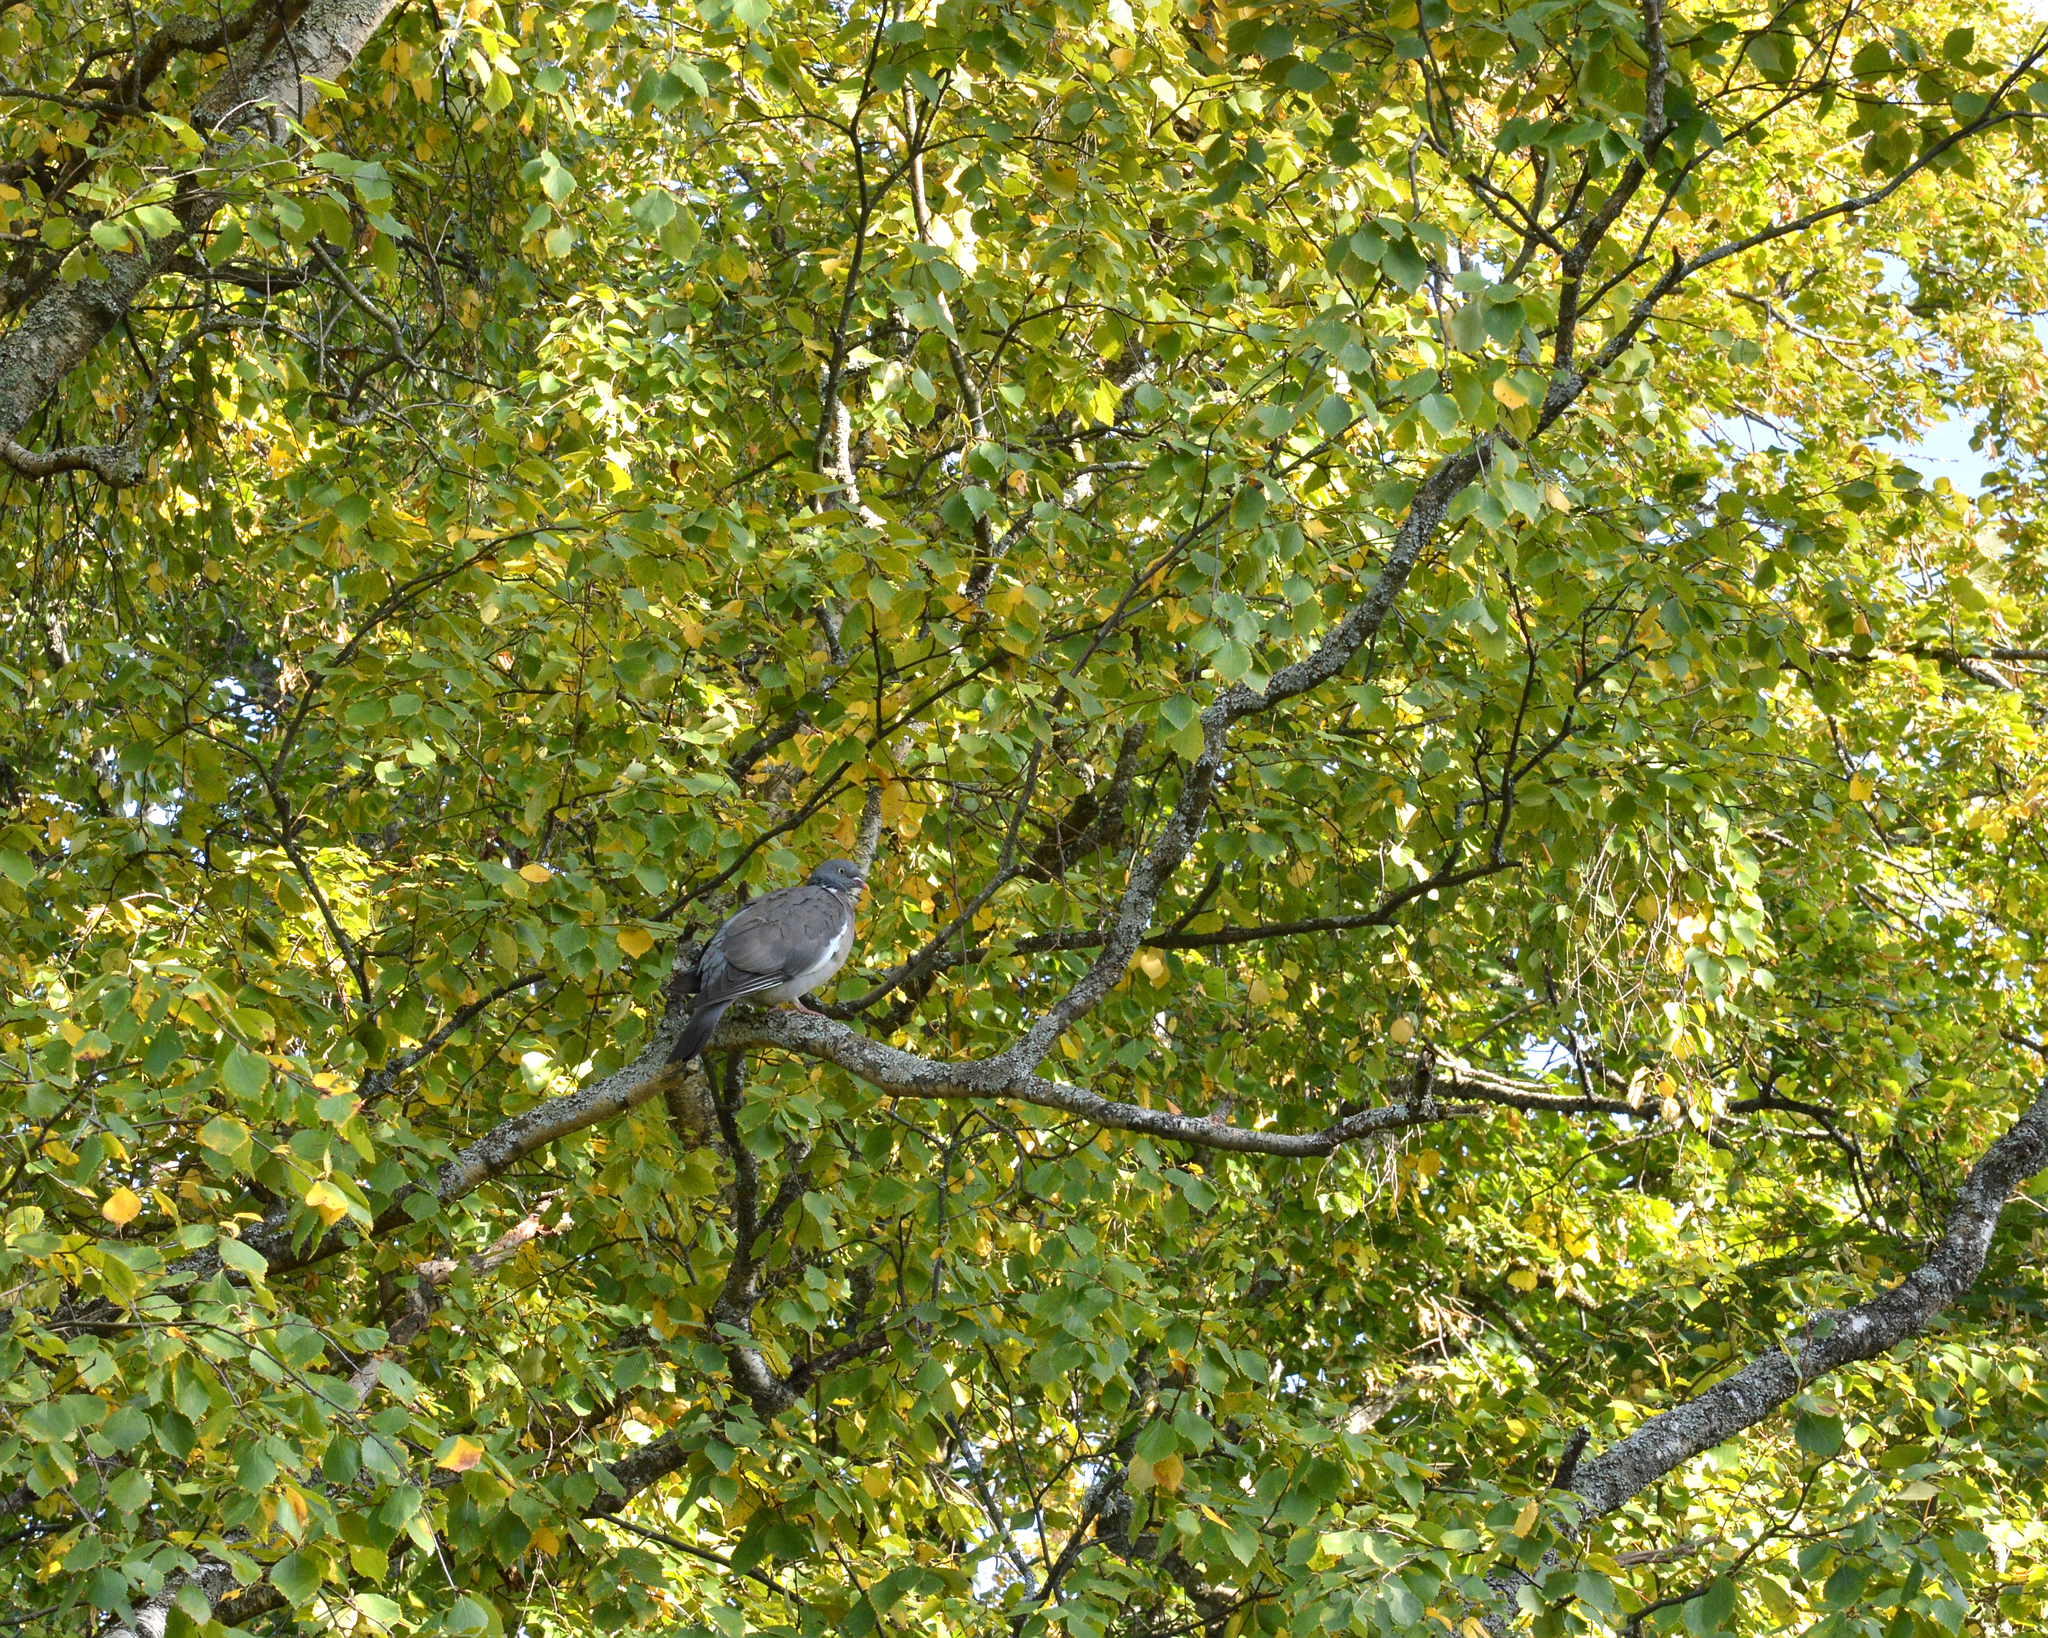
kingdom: Animalia
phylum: Chordata
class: Aves
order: Columbiformes
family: Columbidae
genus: Columba
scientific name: Columba palumbus
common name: Common wood pigeon
